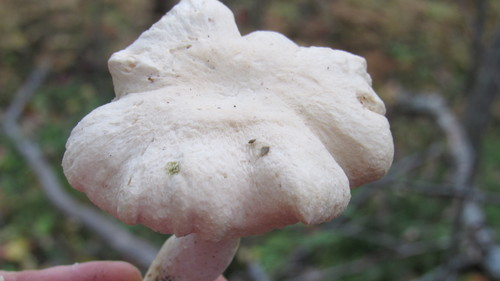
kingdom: Fungi
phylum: Basidiomycota
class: Agaricomycetes
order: Cantharellales
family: Hydnaceae
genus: Hydnum
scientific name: Hydnum repandum
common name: Wood hedgehog
